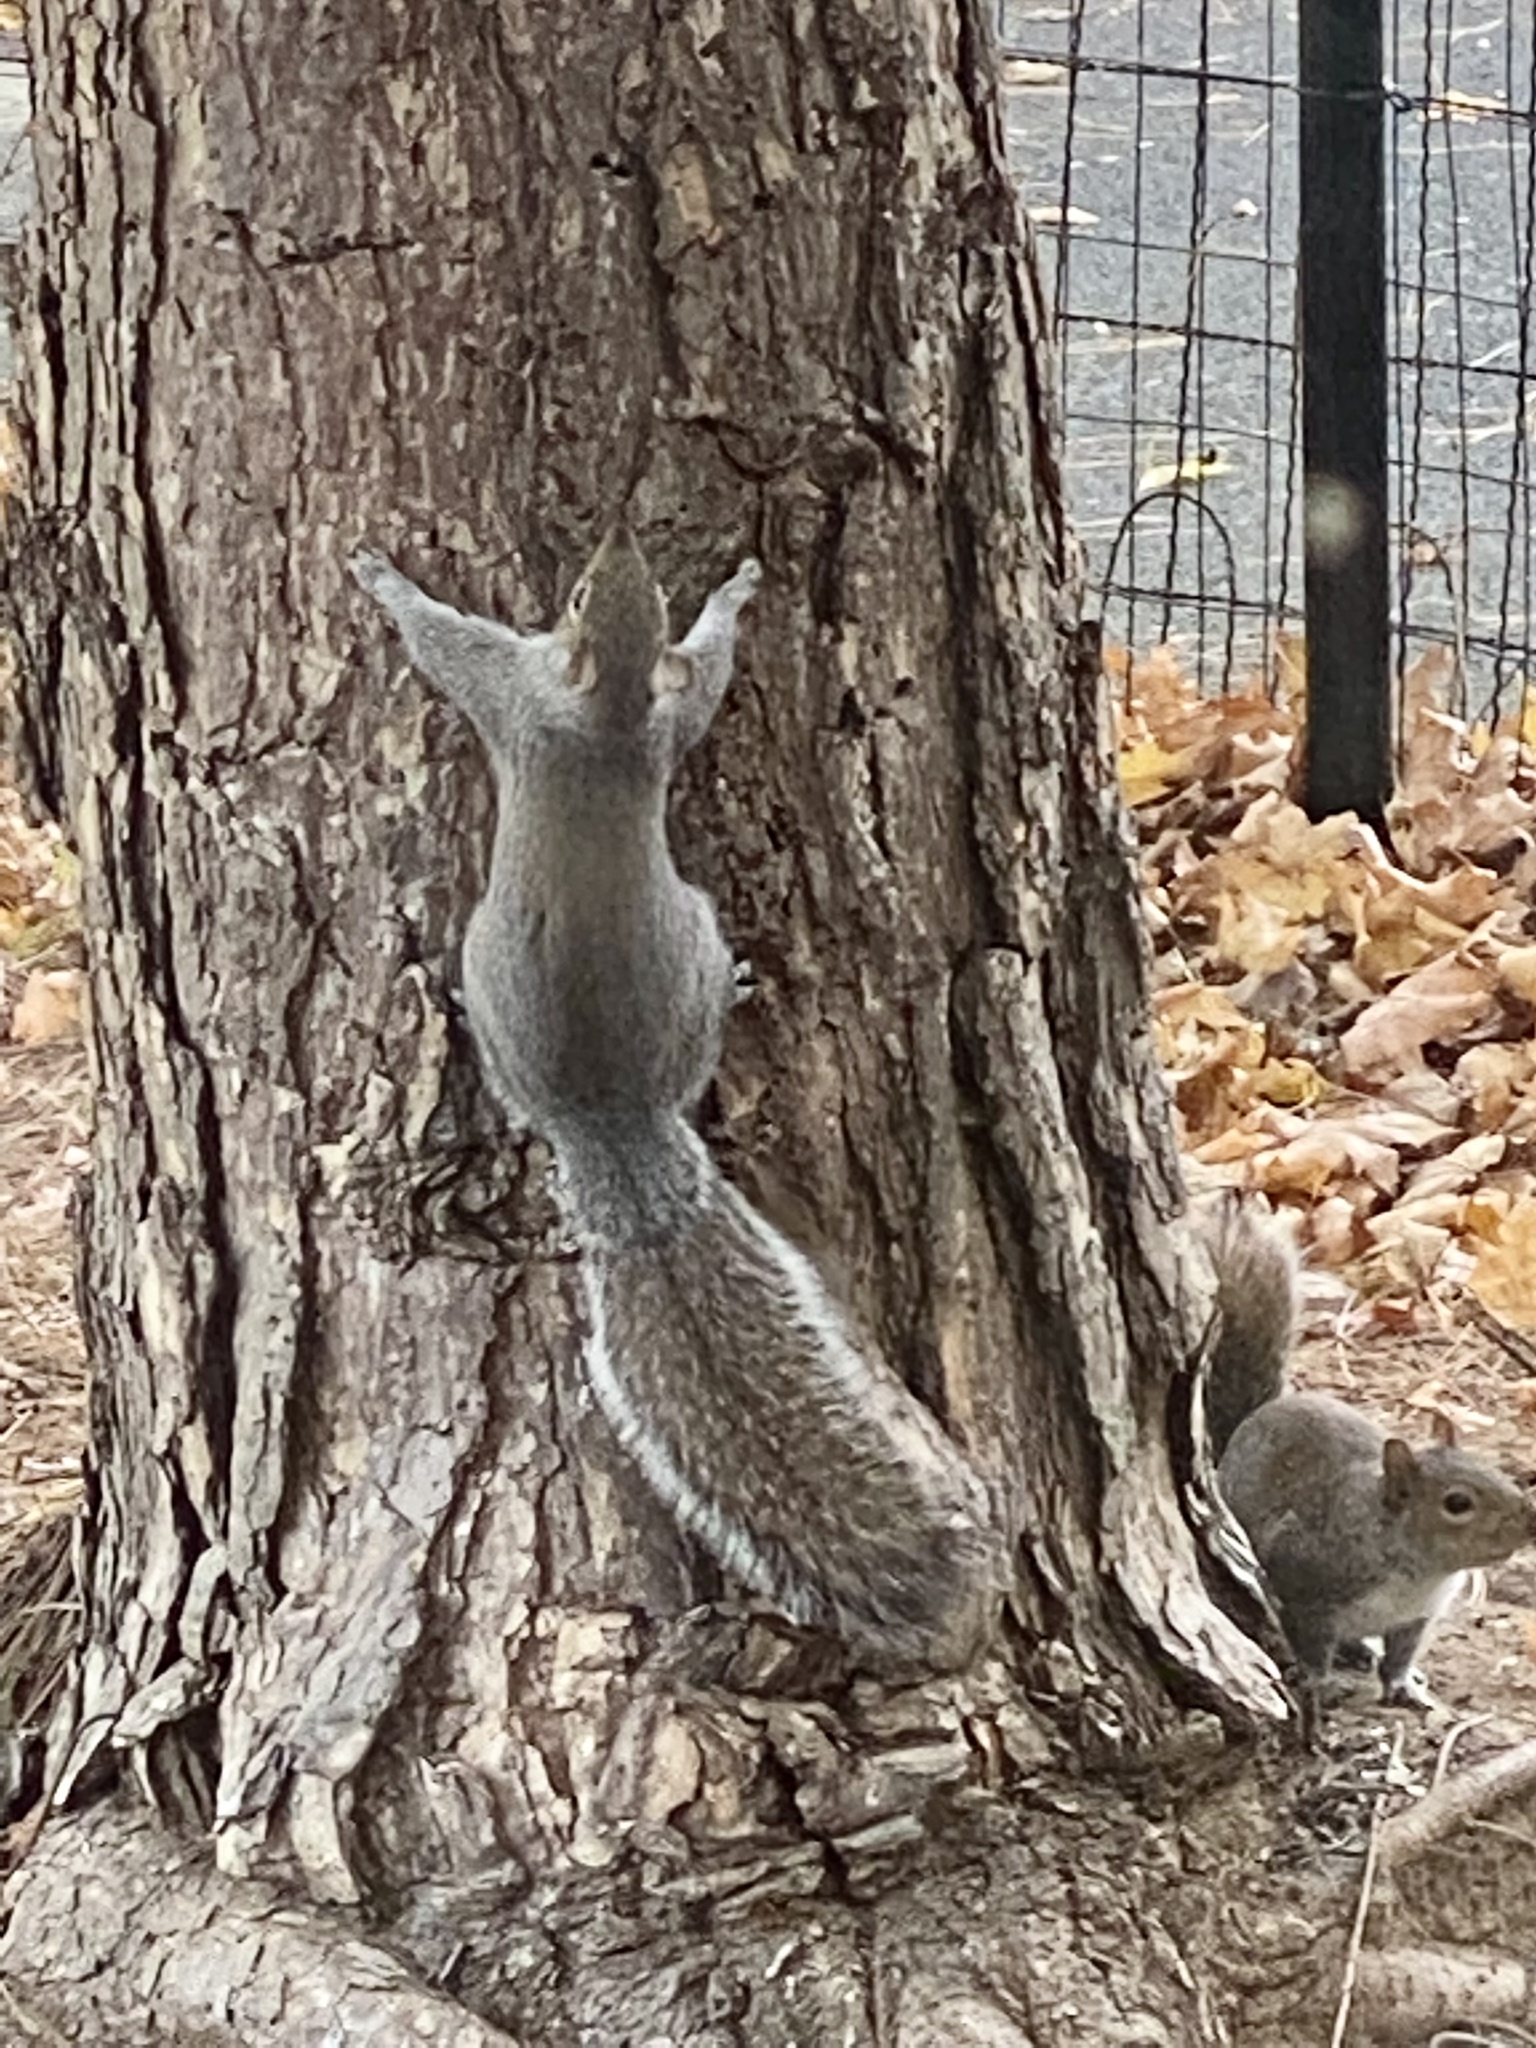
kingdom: Animalia
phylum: Chordata
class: Mammalia
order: Rodentia
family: Sciuridae
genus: Sciurus
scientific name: Sciurus carolinensis
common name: Eastern gray squirrel
